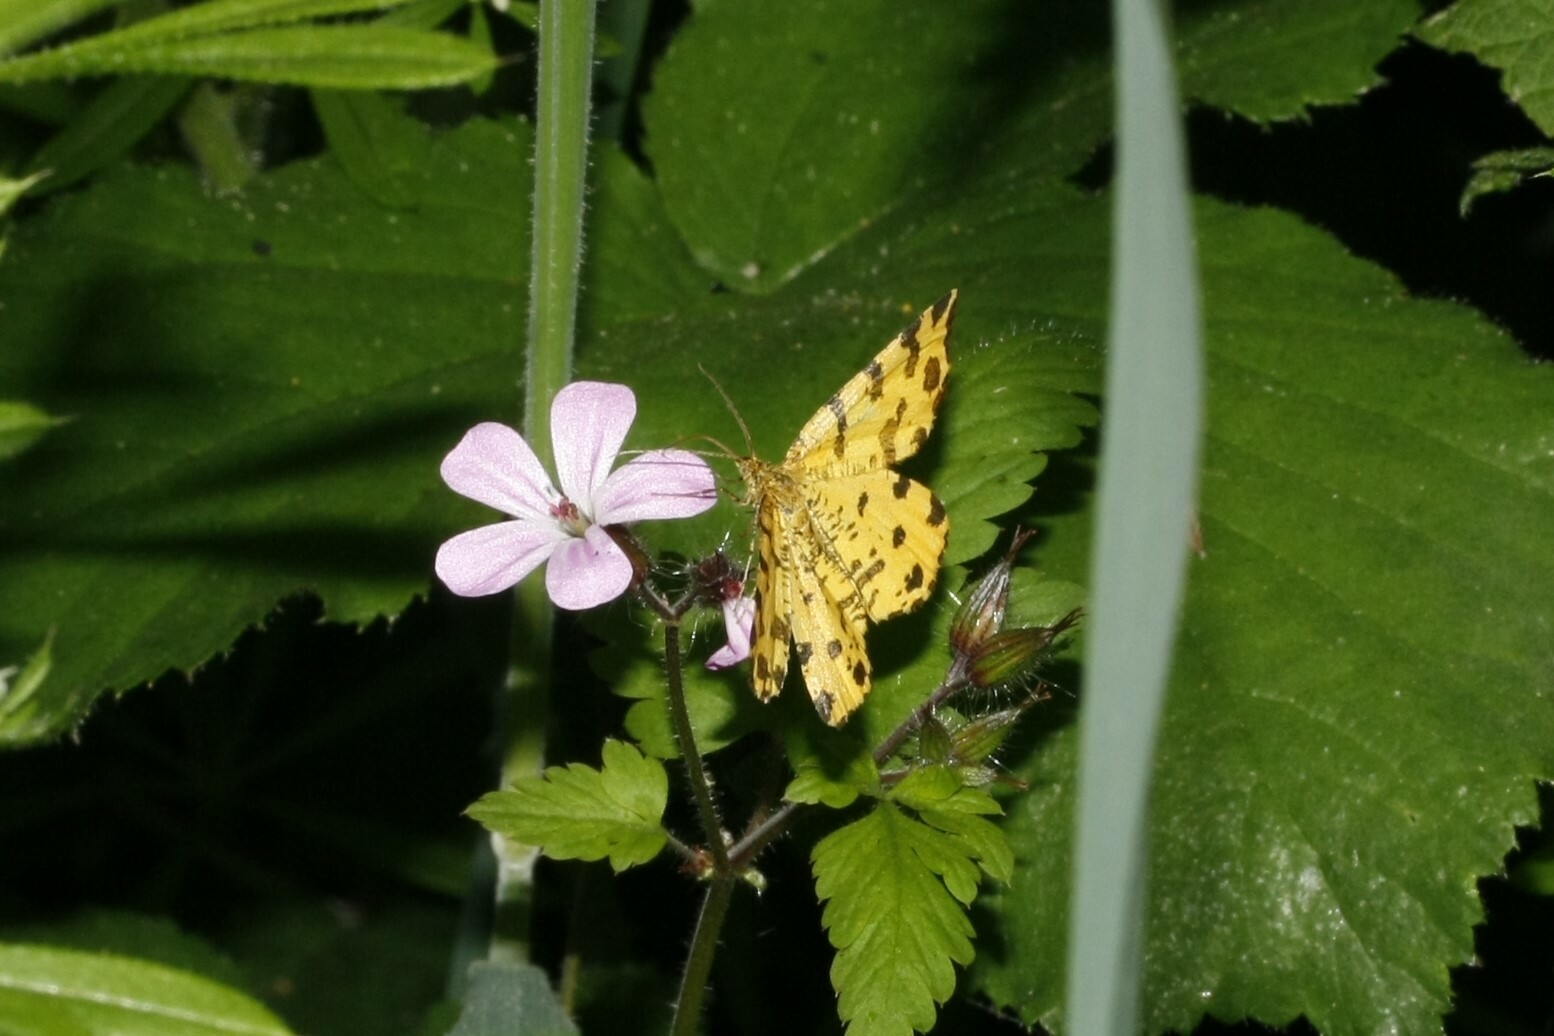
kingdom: Animalia
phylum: Arthropoda
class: Insecta
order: Lepidoptera
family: Geometridae
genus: Pseudopanthera
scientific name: Pseudopanthera macularia
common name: Speckled yellow
